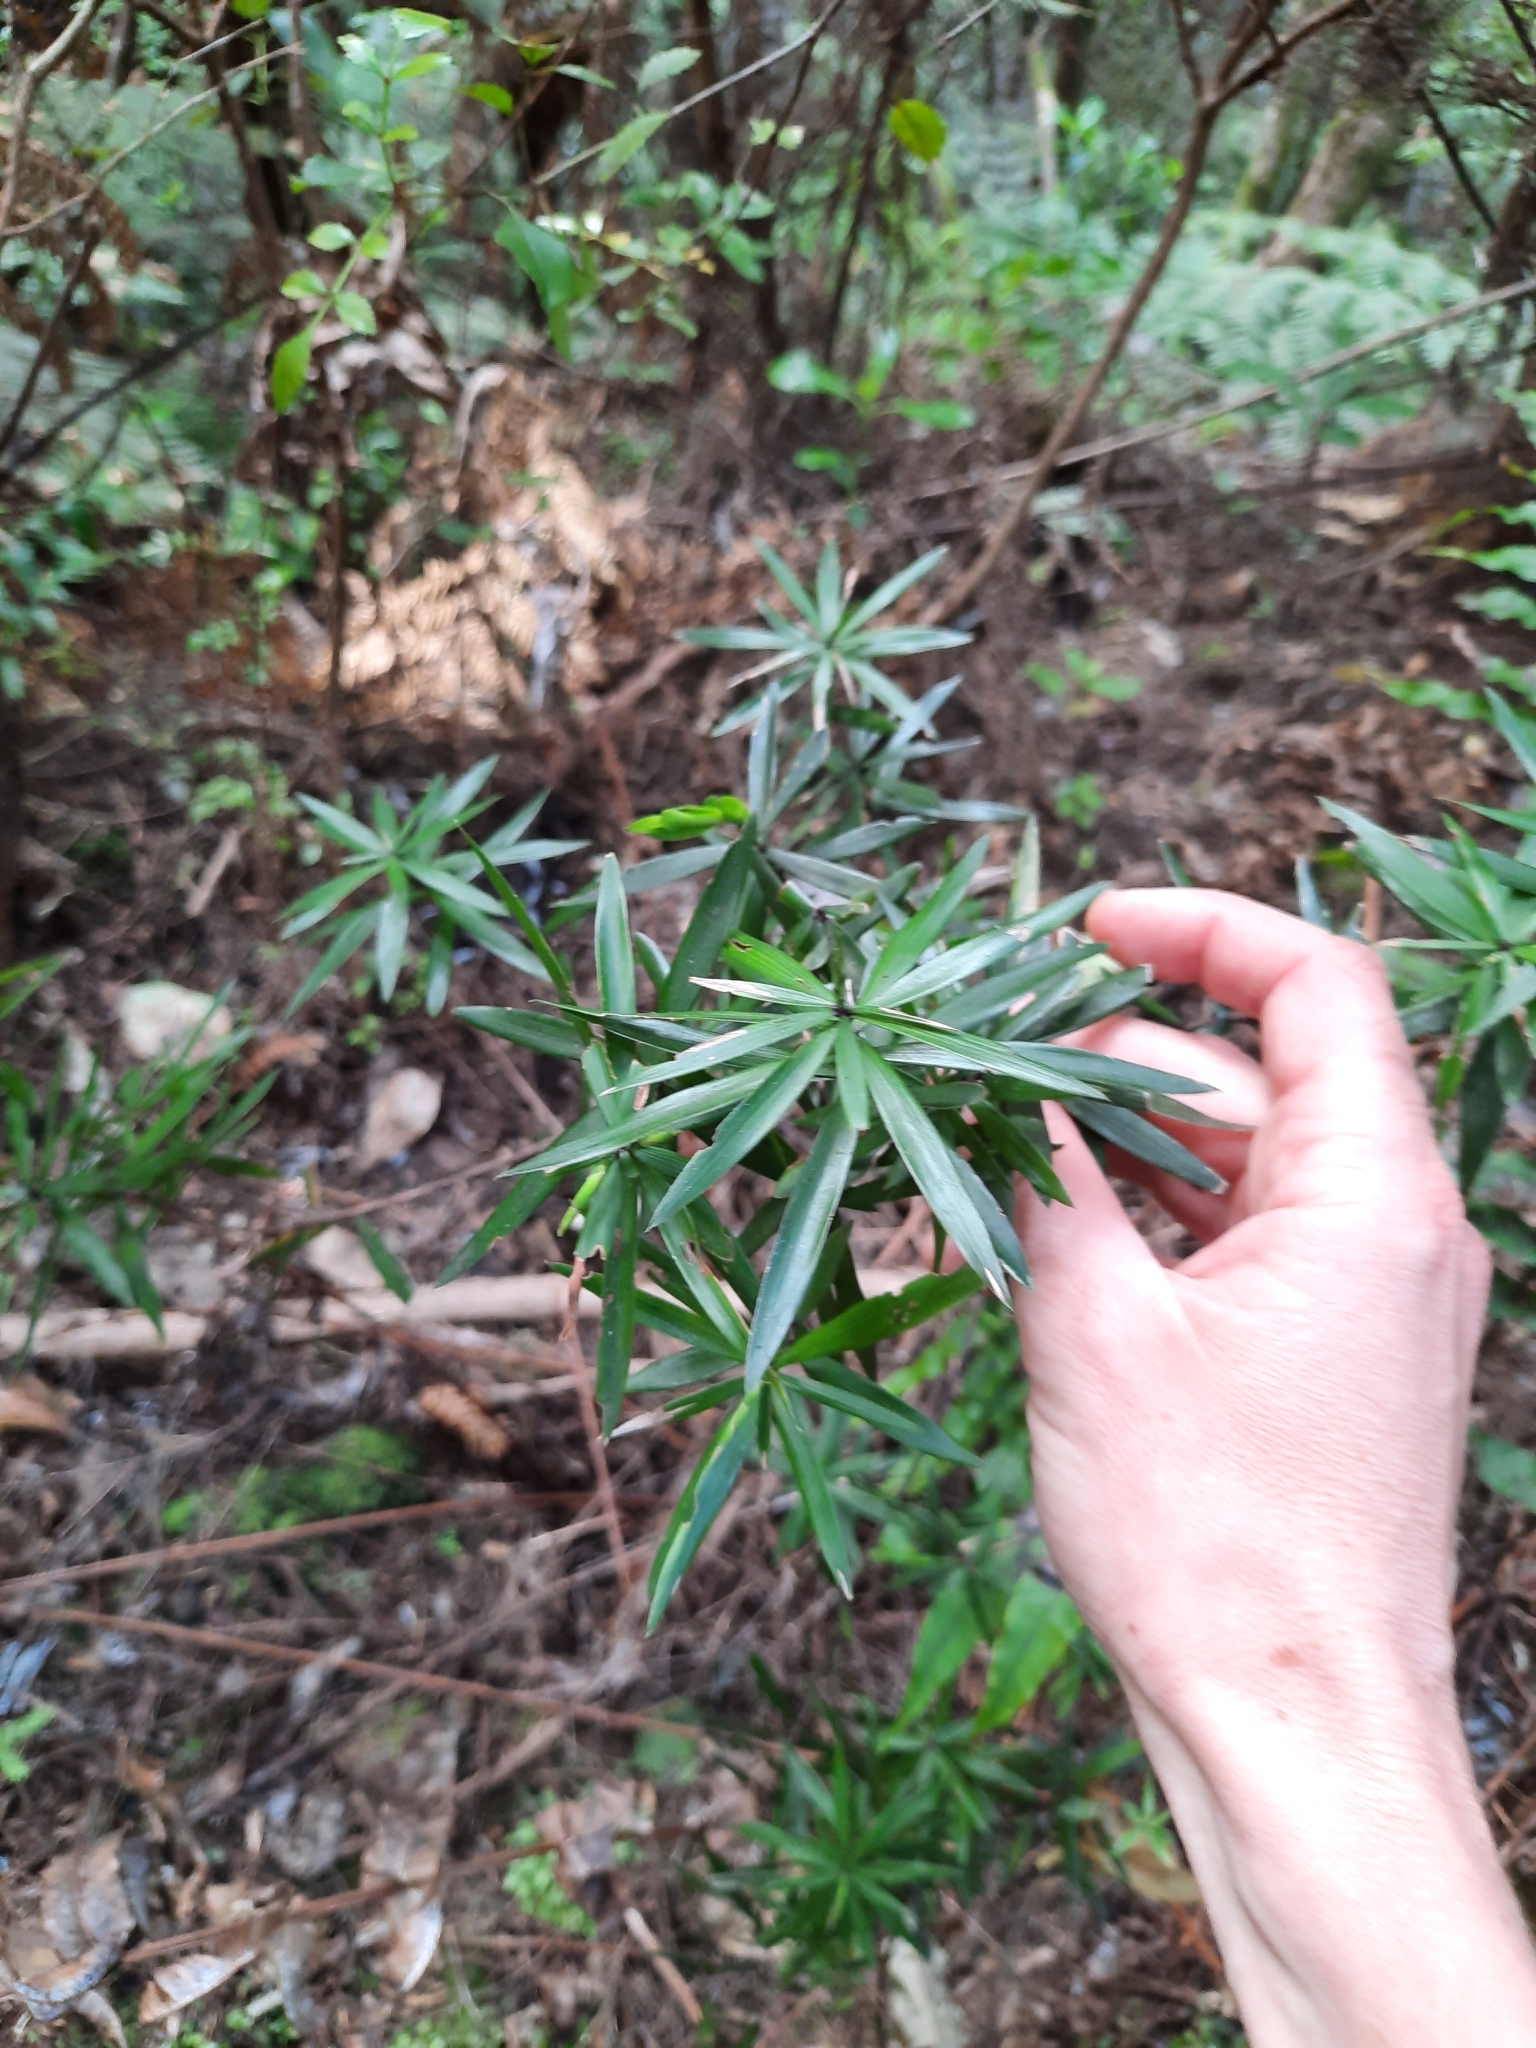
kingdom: Plantae
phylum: Tracheophyta
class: Magnoliopsida
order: Ericales
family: Ericaceae
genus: Leucopogon
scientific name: Leucopogon fasciculatus
